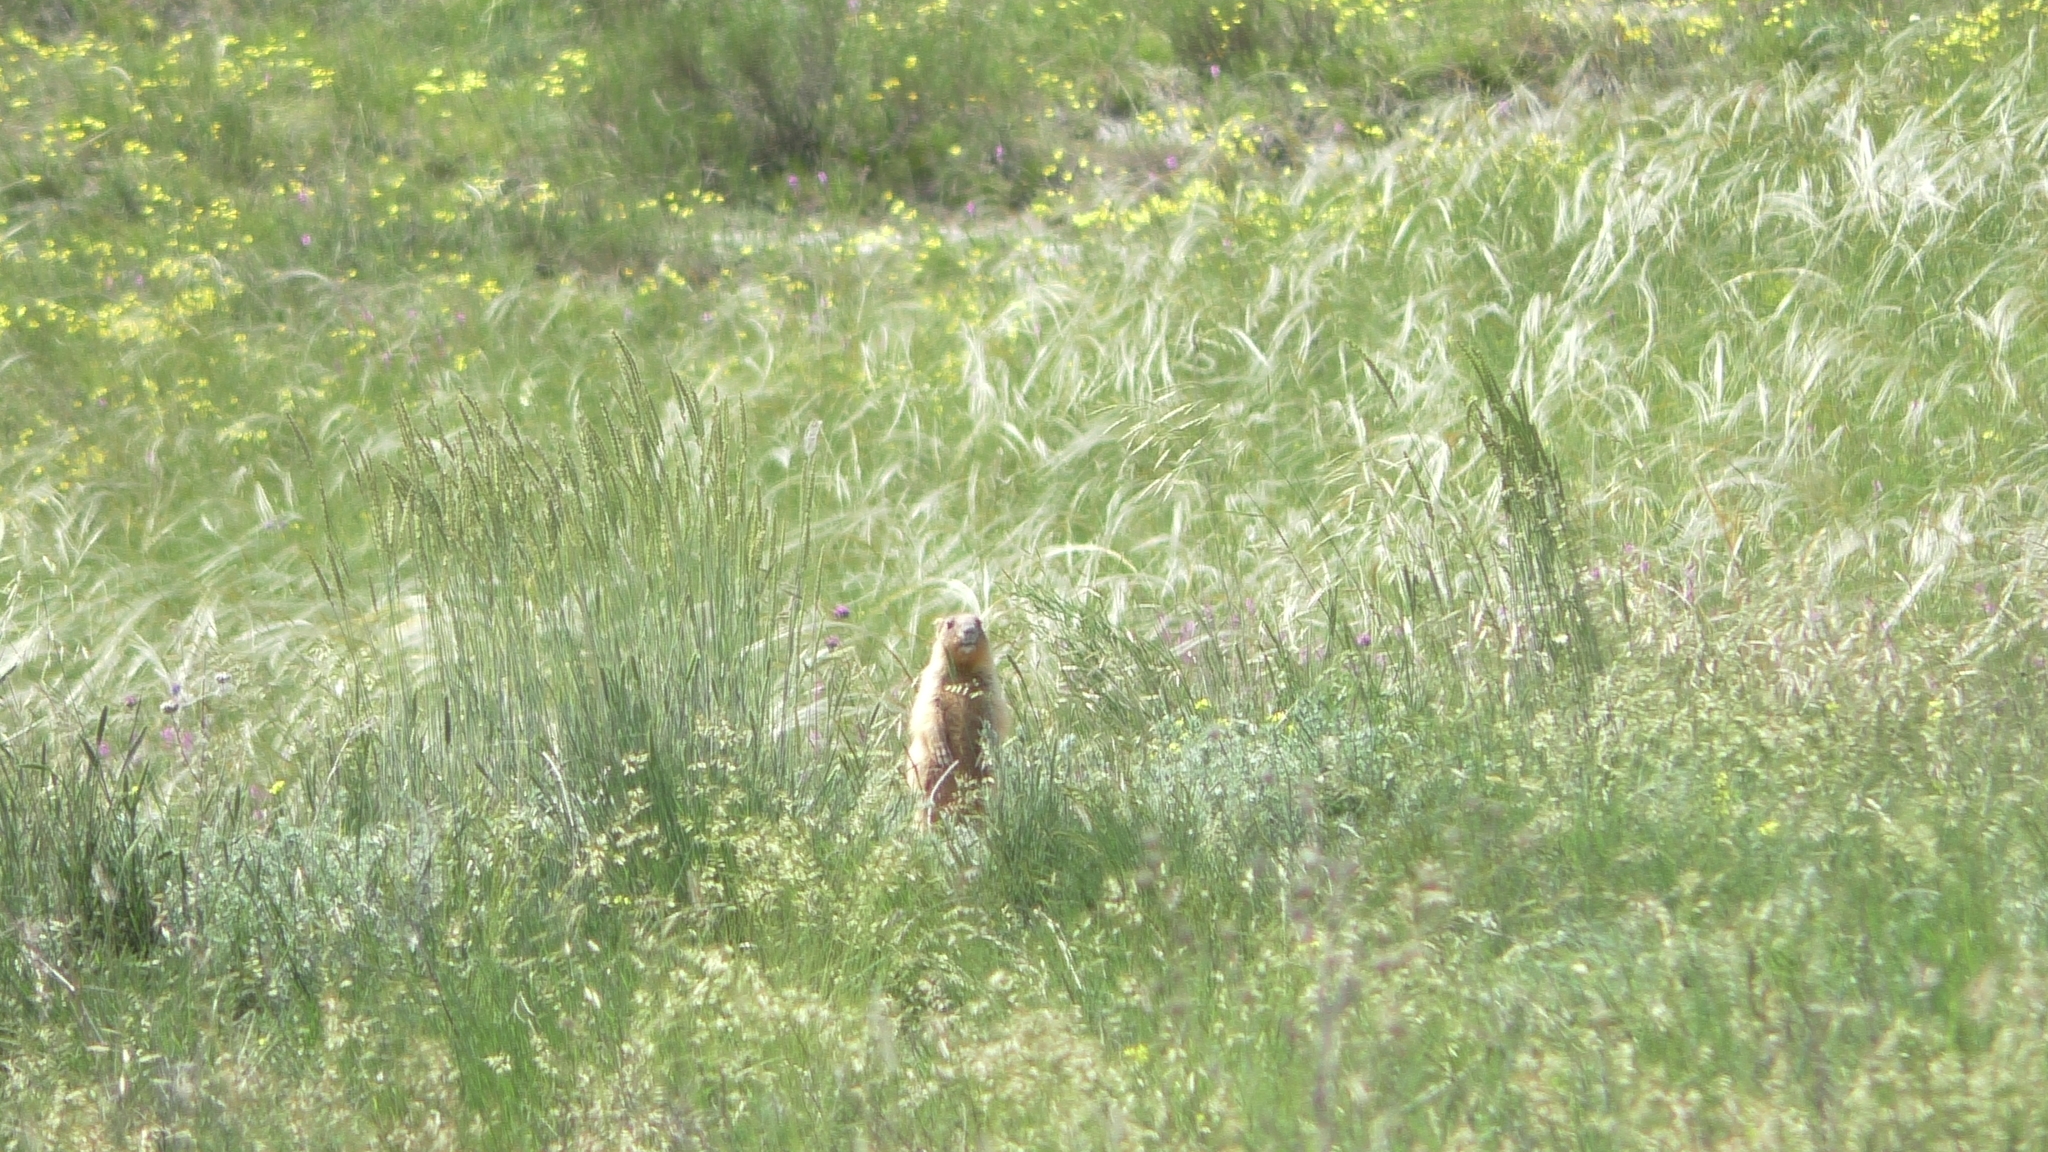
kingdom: Animalia
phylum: Chordata
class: Mammalia
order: Rodentia
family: Sciuridae
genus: Marmota
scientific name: Marmota bobak
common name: Bobak marmot
